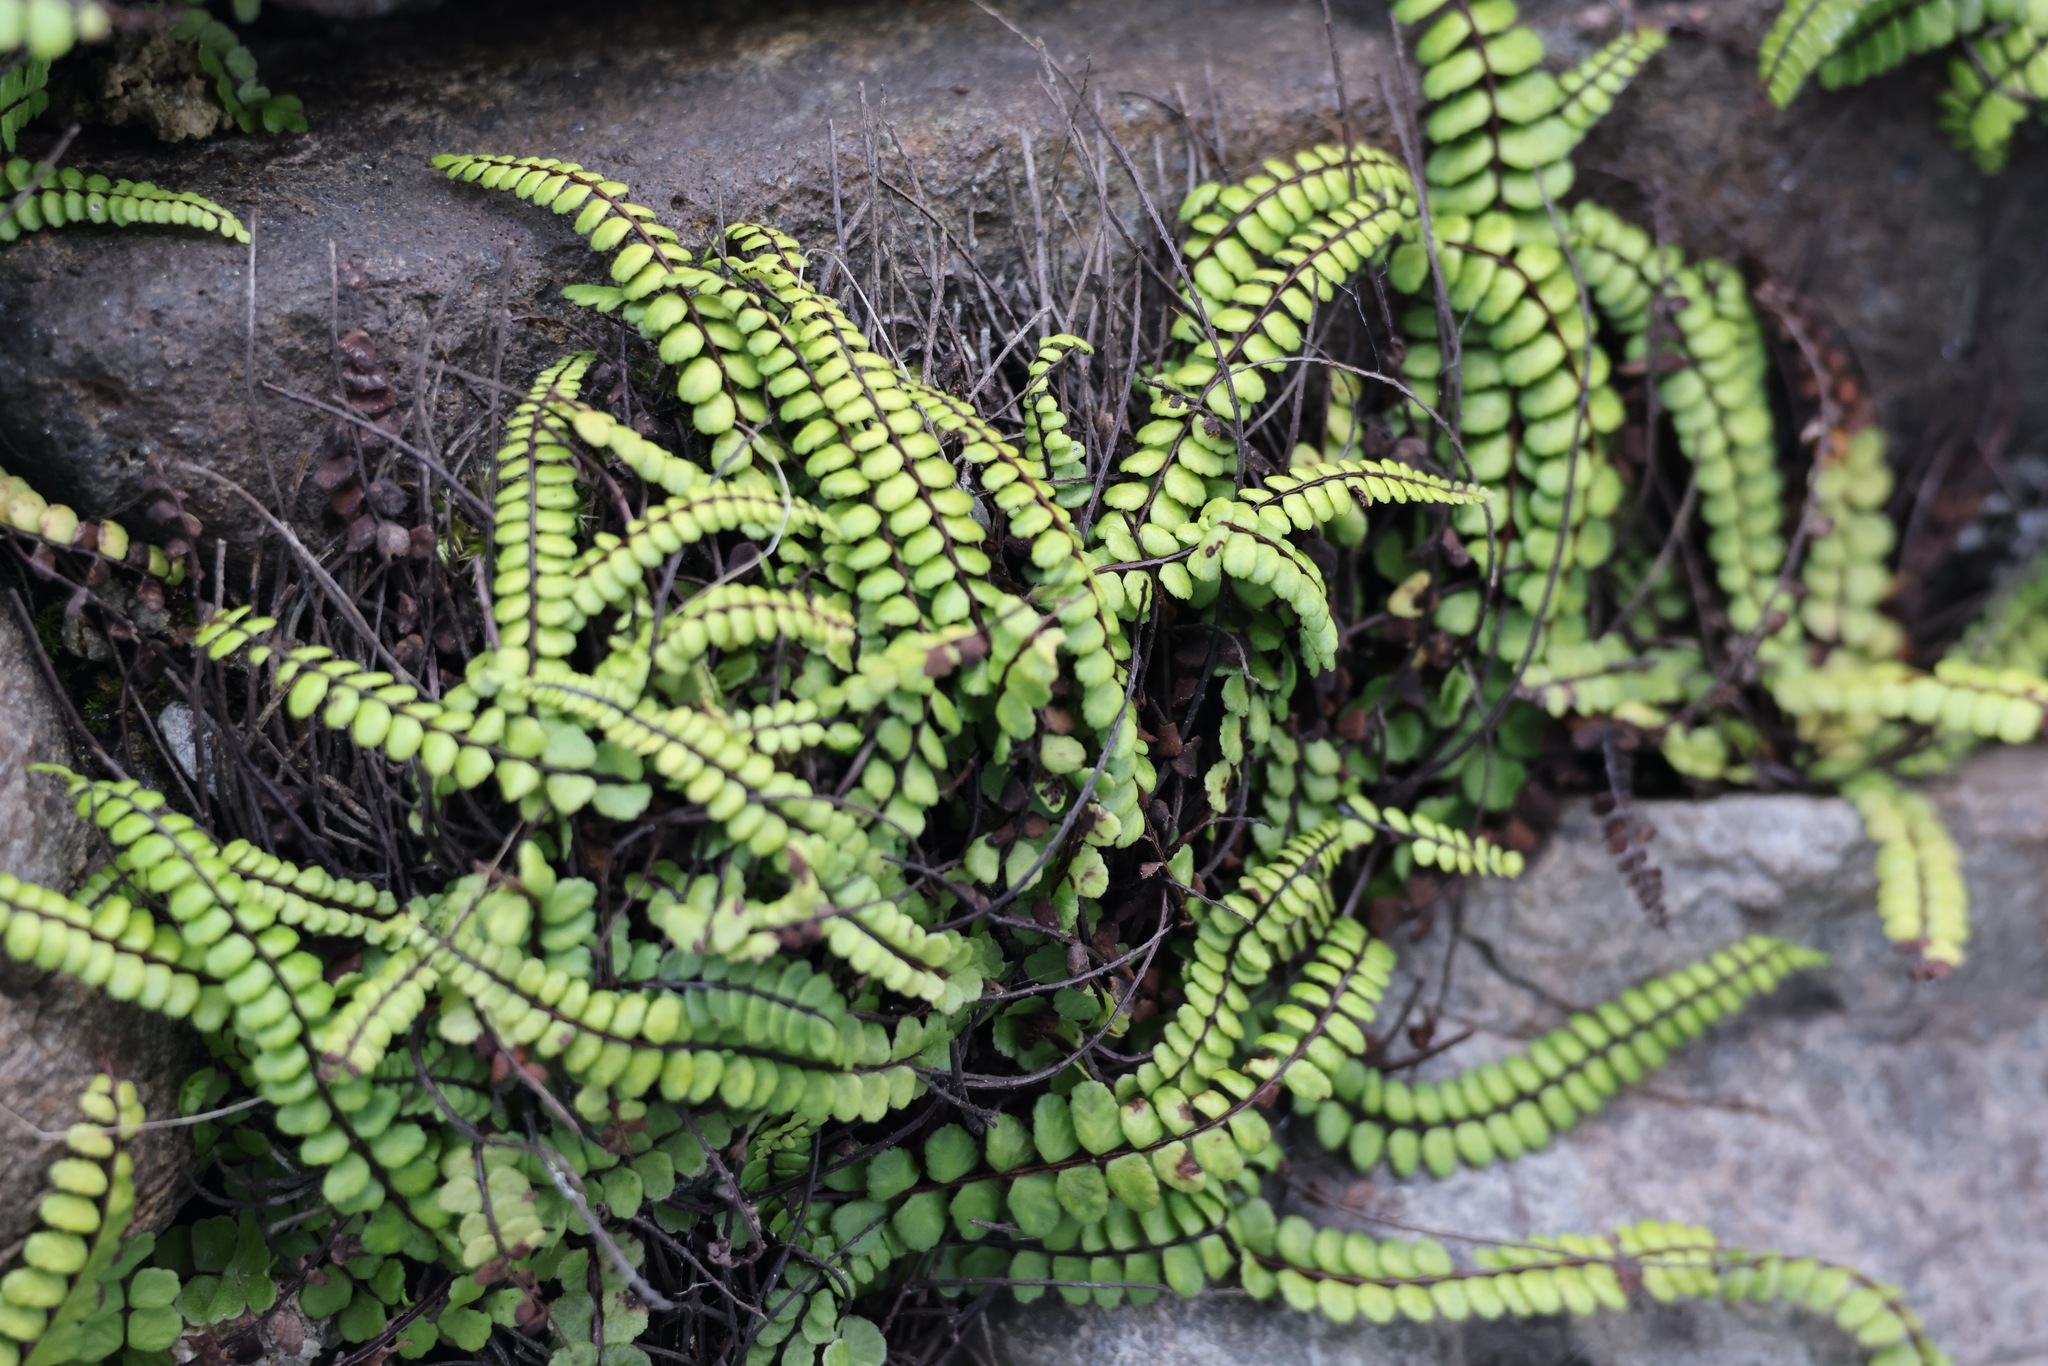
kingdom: Plantae
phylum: Tracheophyta
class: Polypodiopsida
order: Polypodiales
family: Aspleniaceae
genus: Asplenium
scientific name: Asplenium trichomanes
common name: Maidenhair spleenwort
